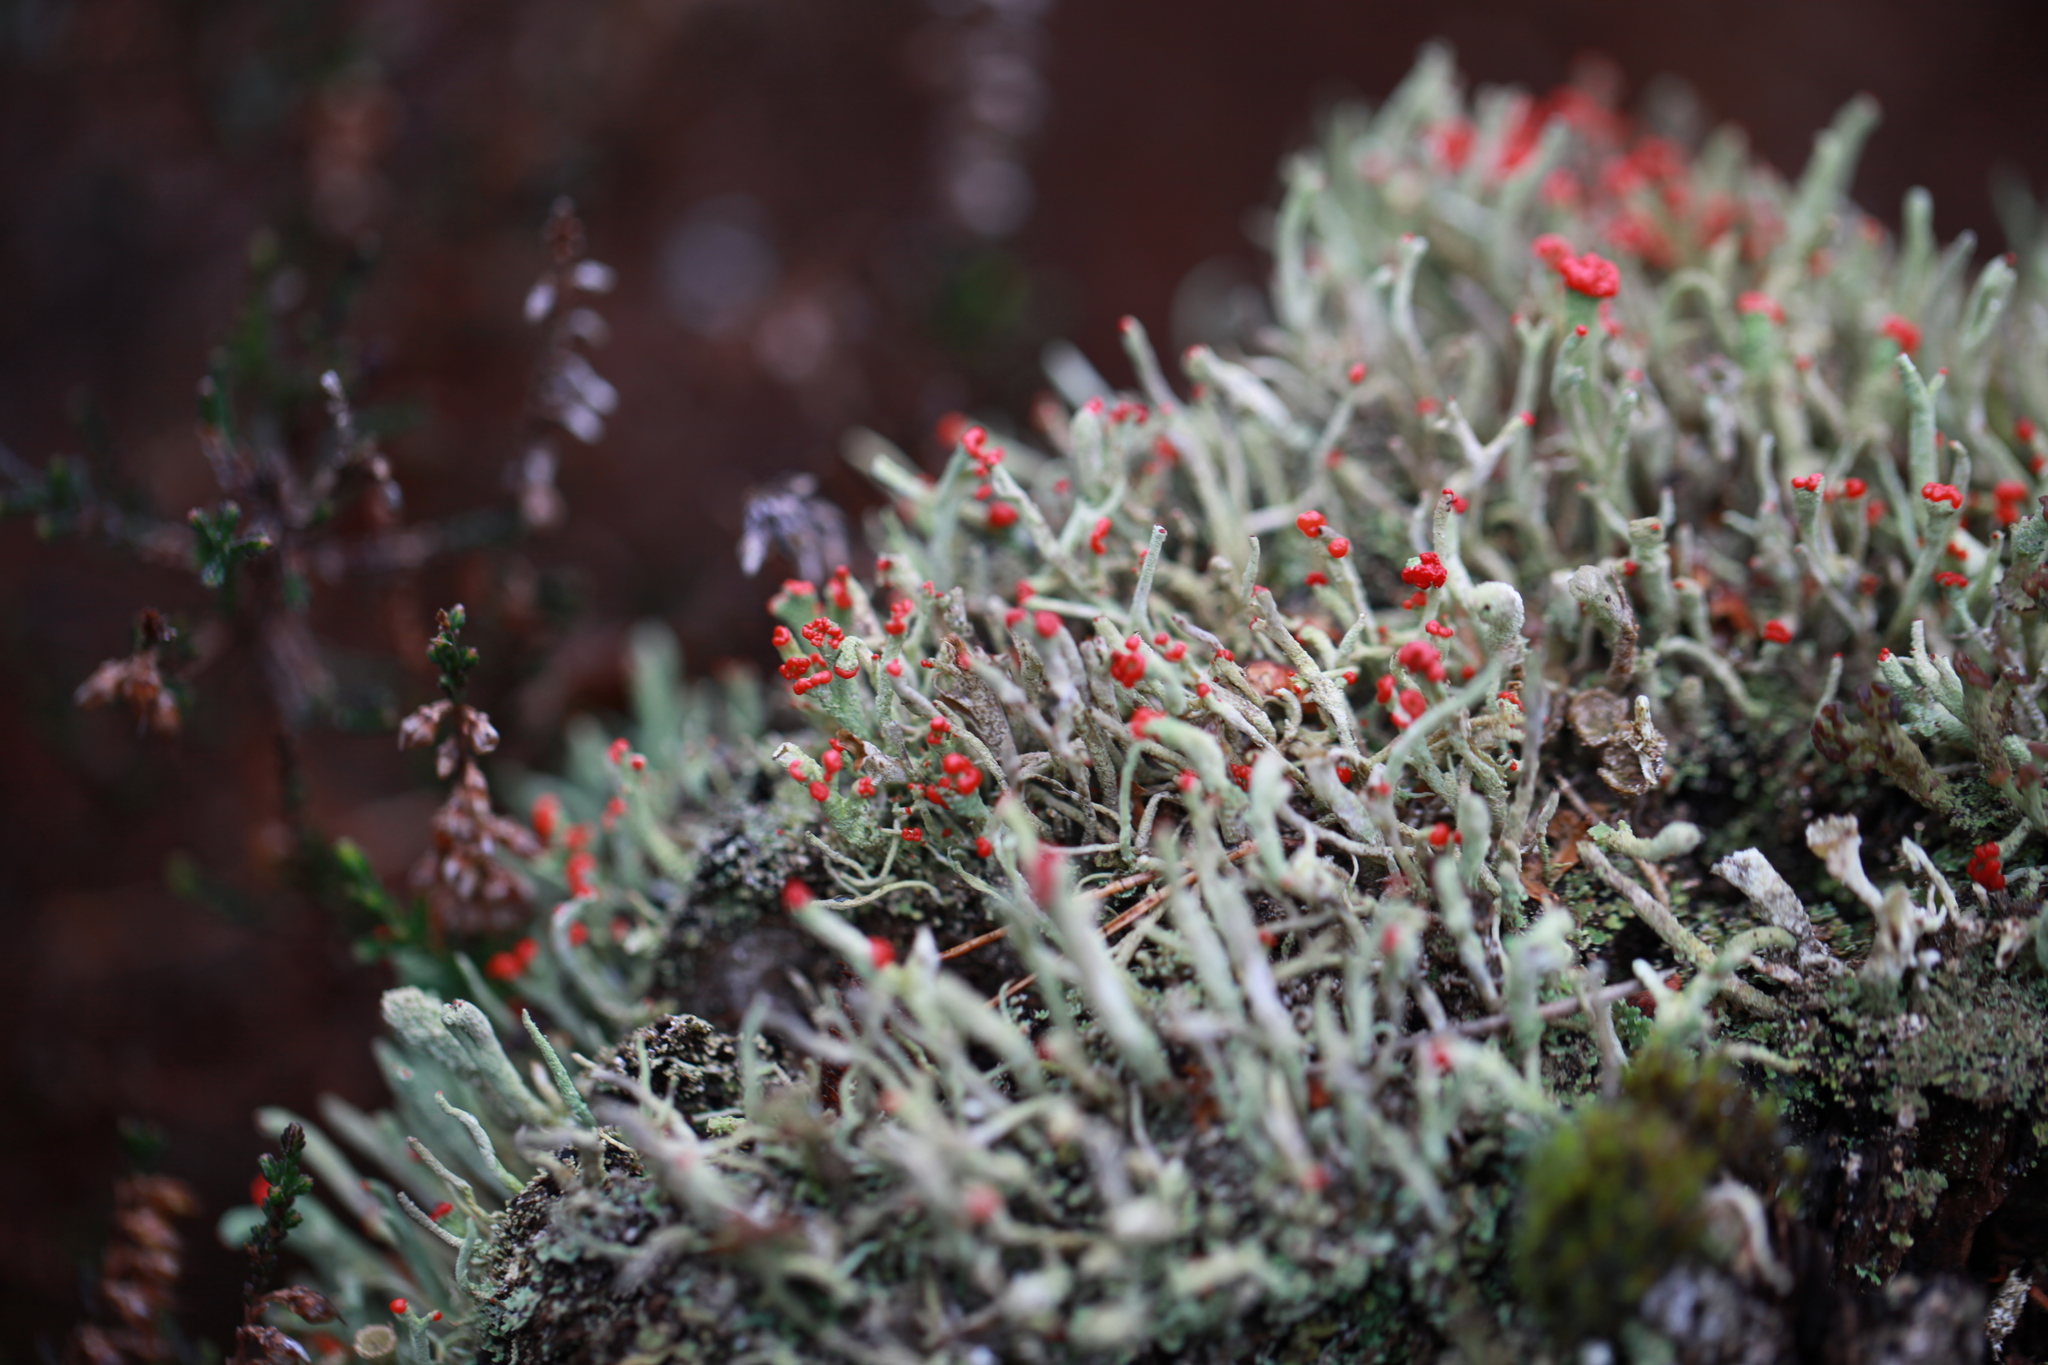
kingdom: Fungi
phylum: Ascomycota
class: Lecanoromycetes
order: Lecanorales
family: Cladoniaceae
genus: Cladonia
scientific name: Cladonia macilenta
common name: Lipstick powderhorn
